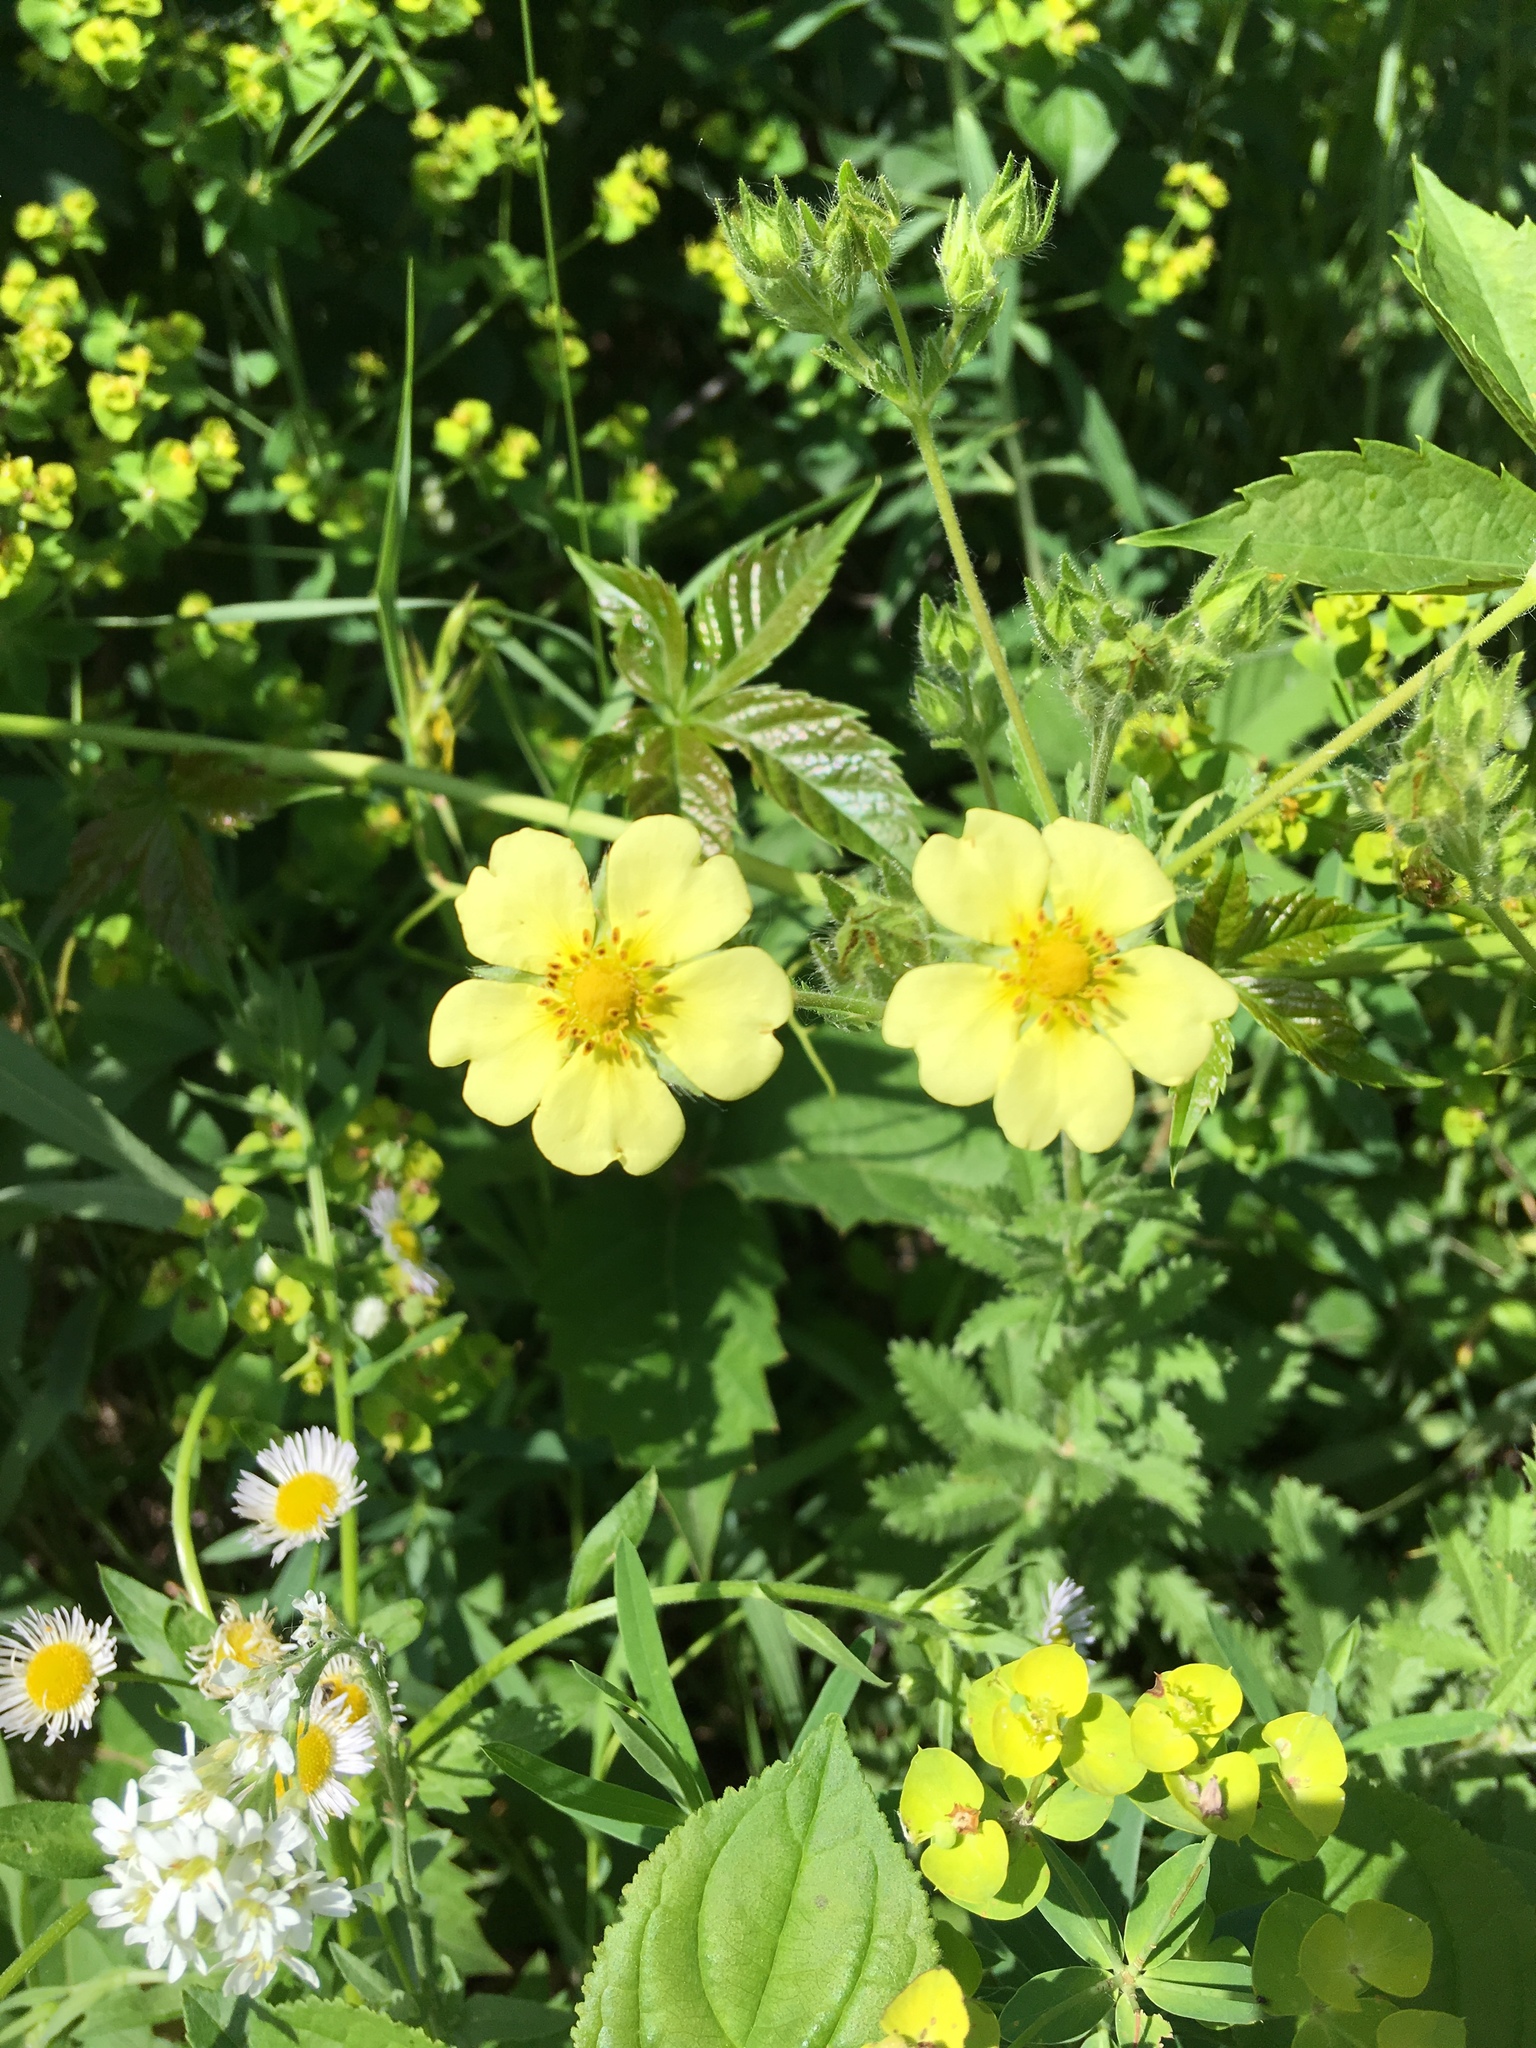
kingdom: Plantae
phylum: Tracheophyta
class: Magnoliopsida
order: Rosales
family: Rosaceae
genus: Potentilla
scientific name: Potentilla recta
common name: Sulphur cinquefoil
